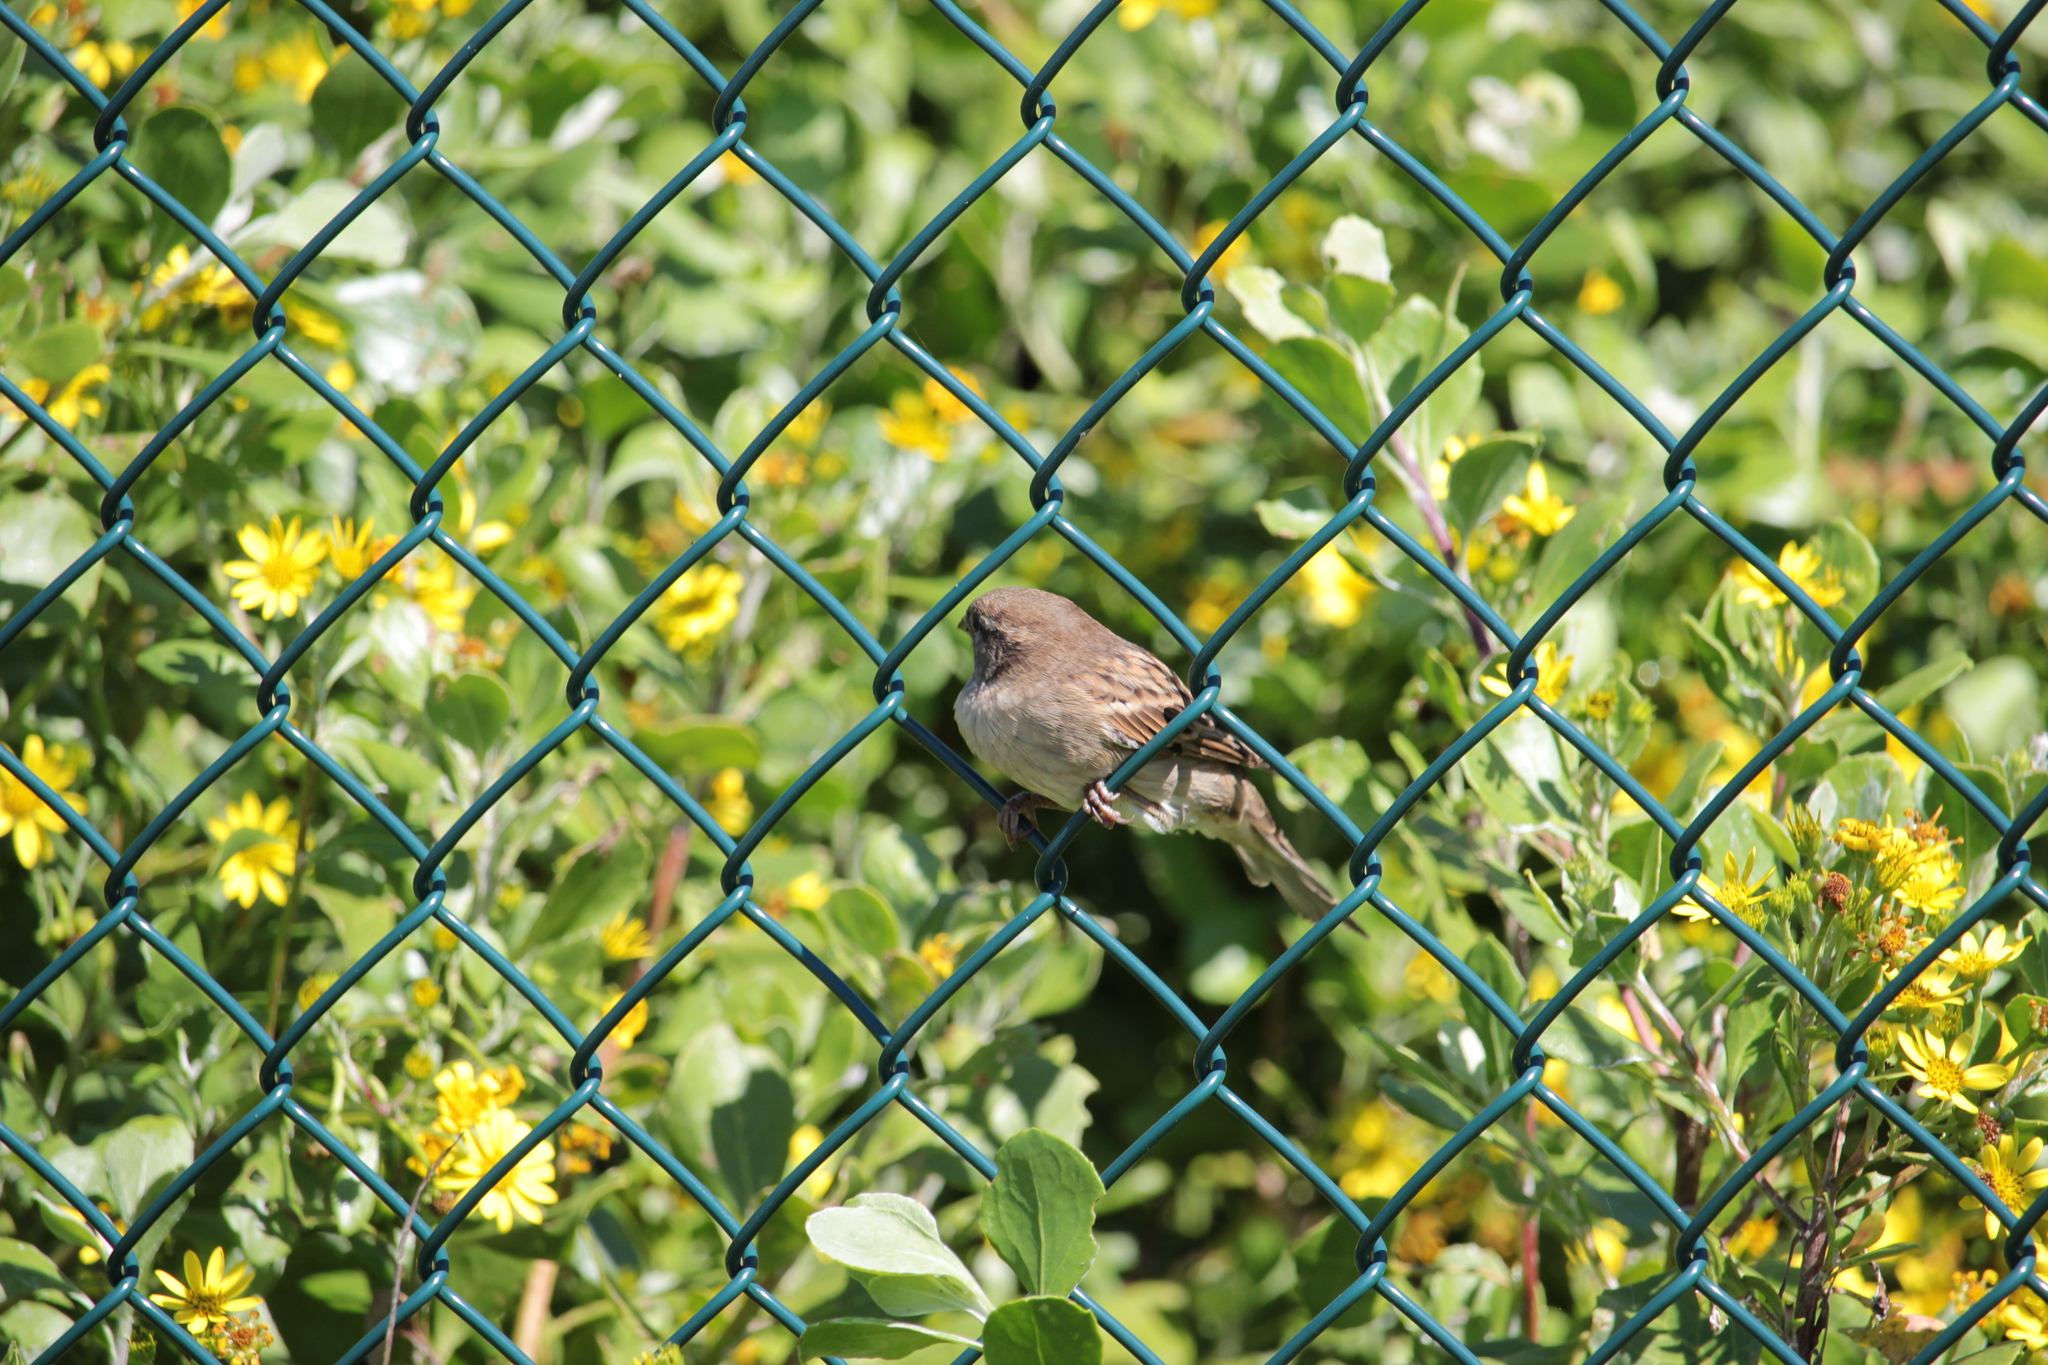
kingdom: Animalia
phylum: Chordata
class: Aves
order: Passeriformes
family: Passeridae
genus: Passer
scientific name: Passer domesticus
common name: House sparrow
